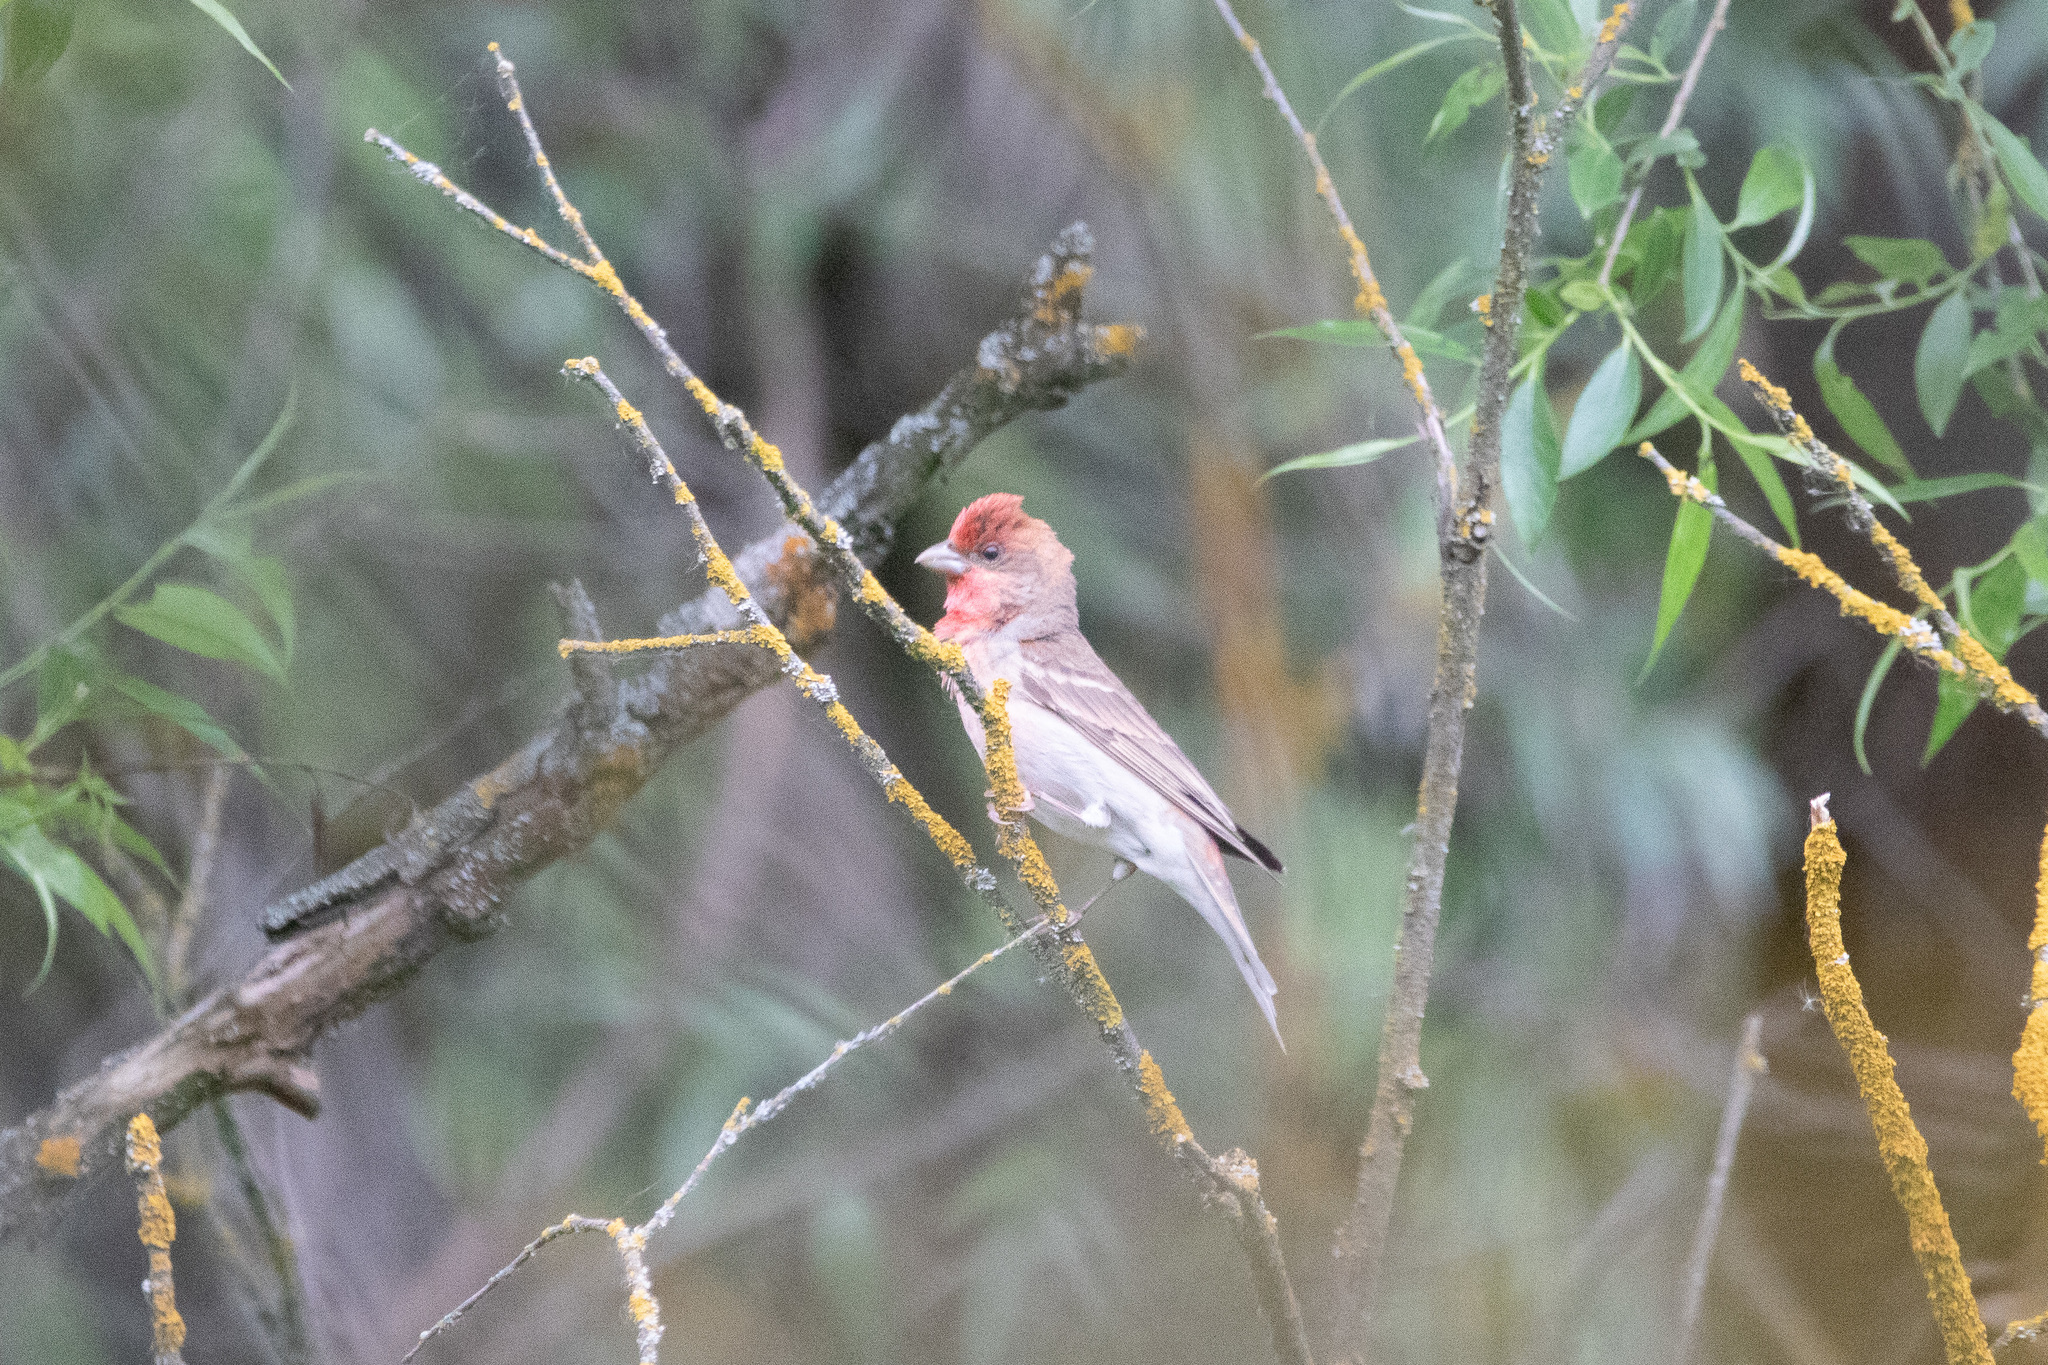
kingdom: Animalia
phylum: Chordata
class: Aves
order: Passeriformes
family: Fringillidae
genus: Carpodacus
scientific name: Carpodacus erythrinus
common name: Common rosefinch
